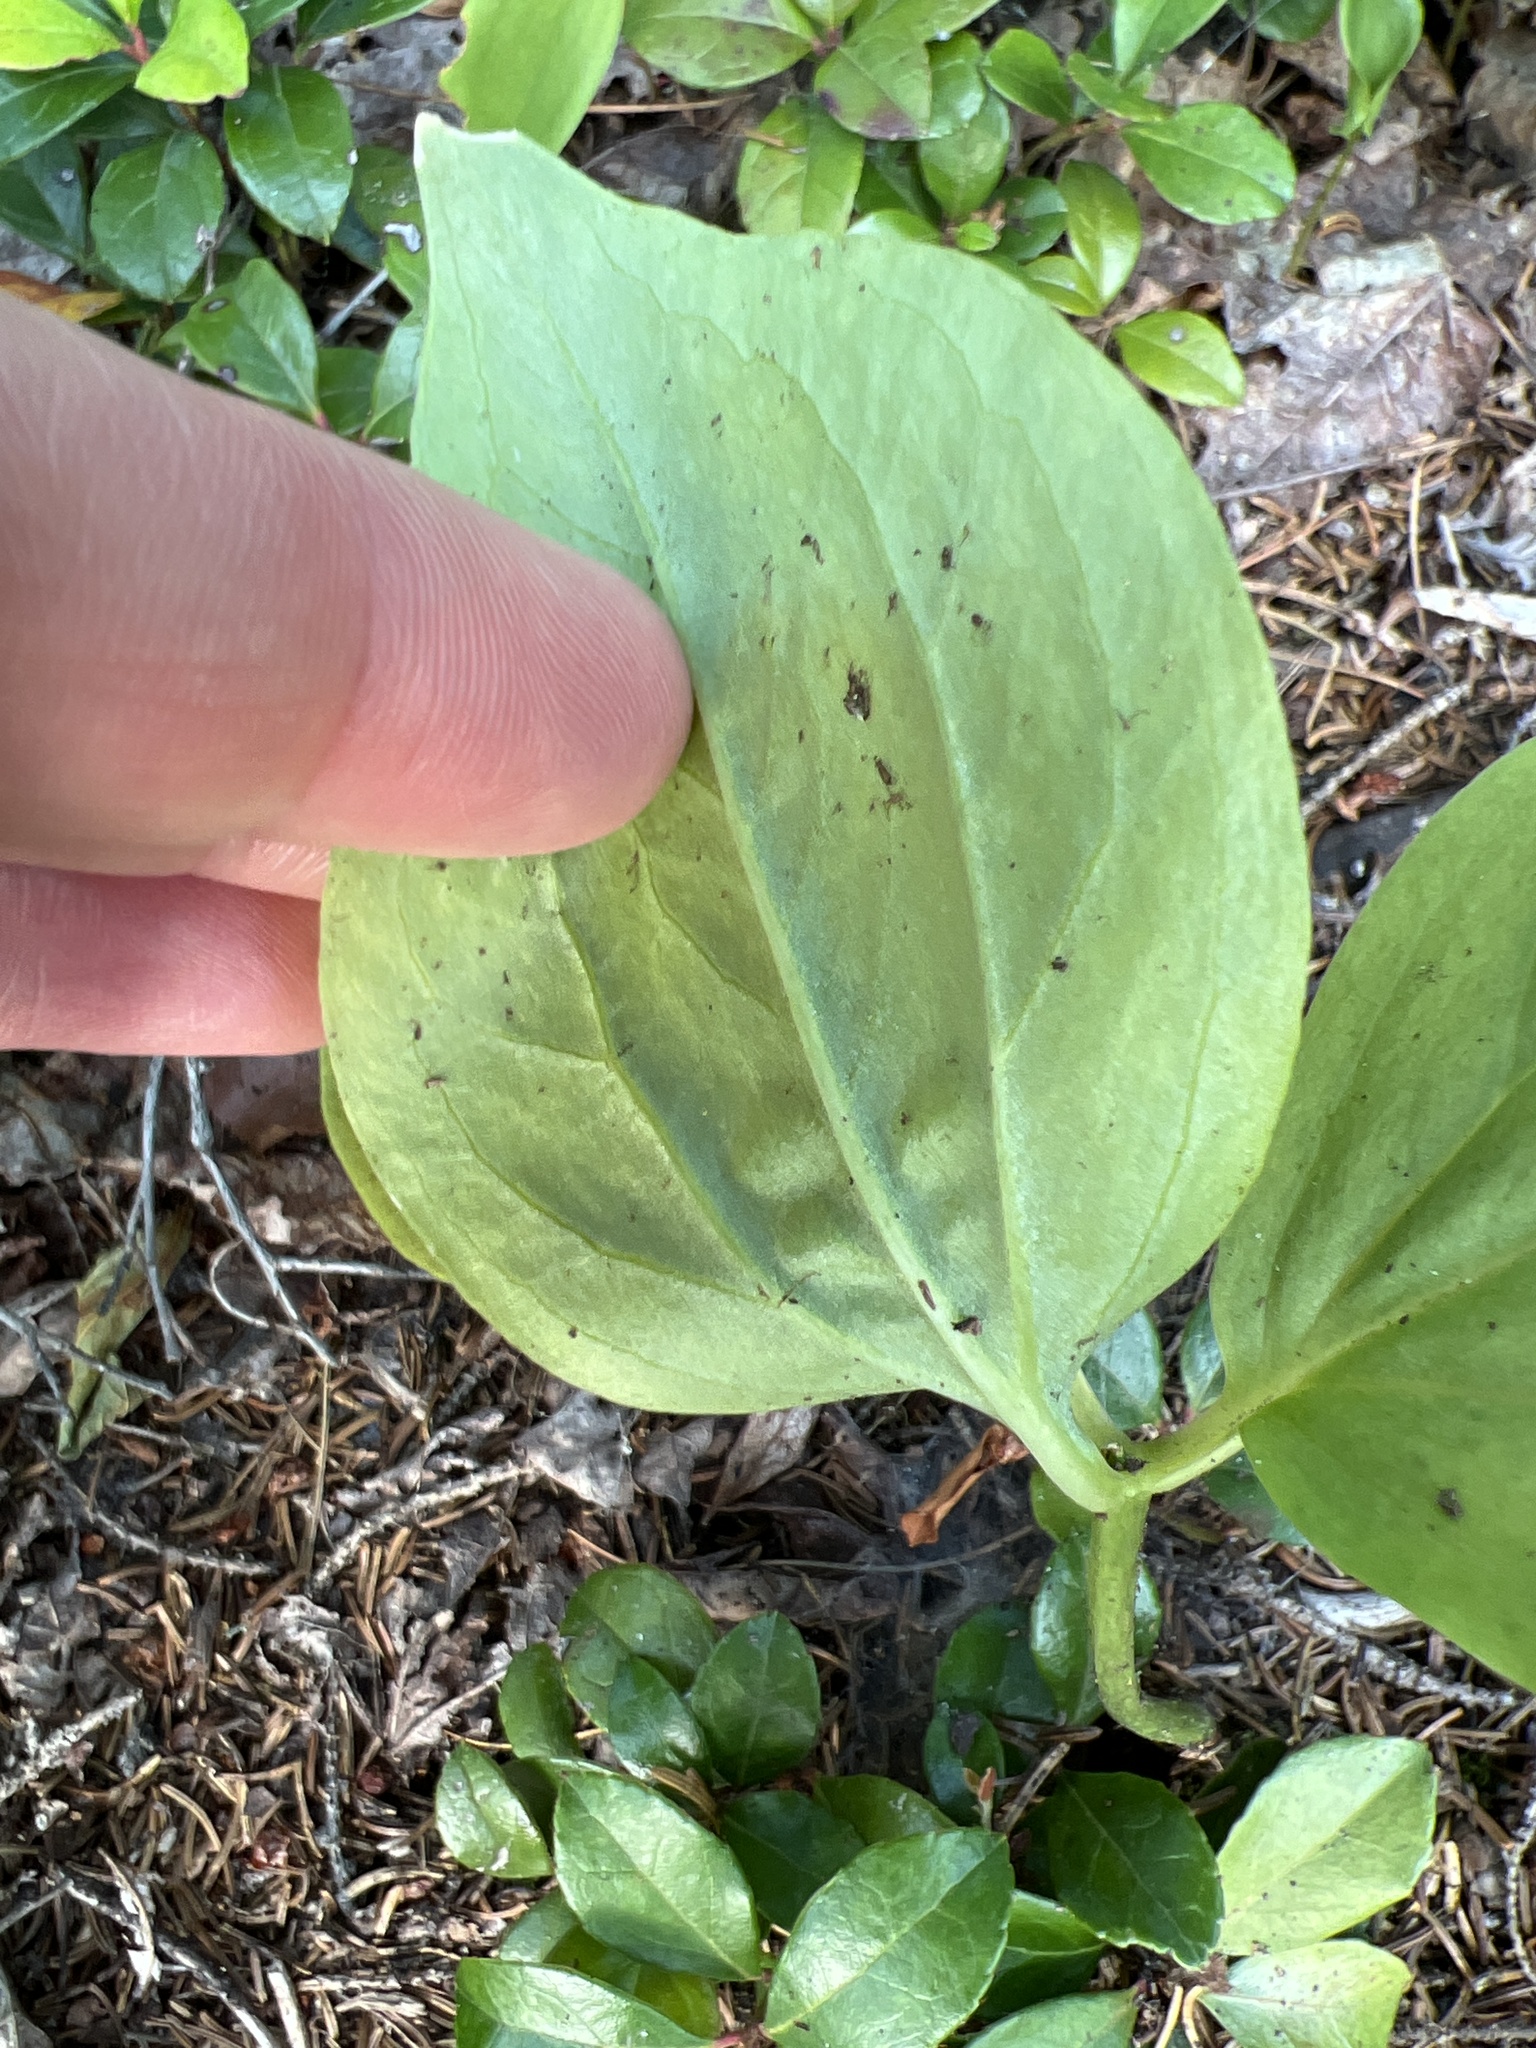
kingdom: Plantae
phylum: Tracheophyta
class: Liliopsida
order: Liliales
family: Melanthiaceae
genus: Trillium
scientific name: Trillium undulatum
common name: Paint trillium
